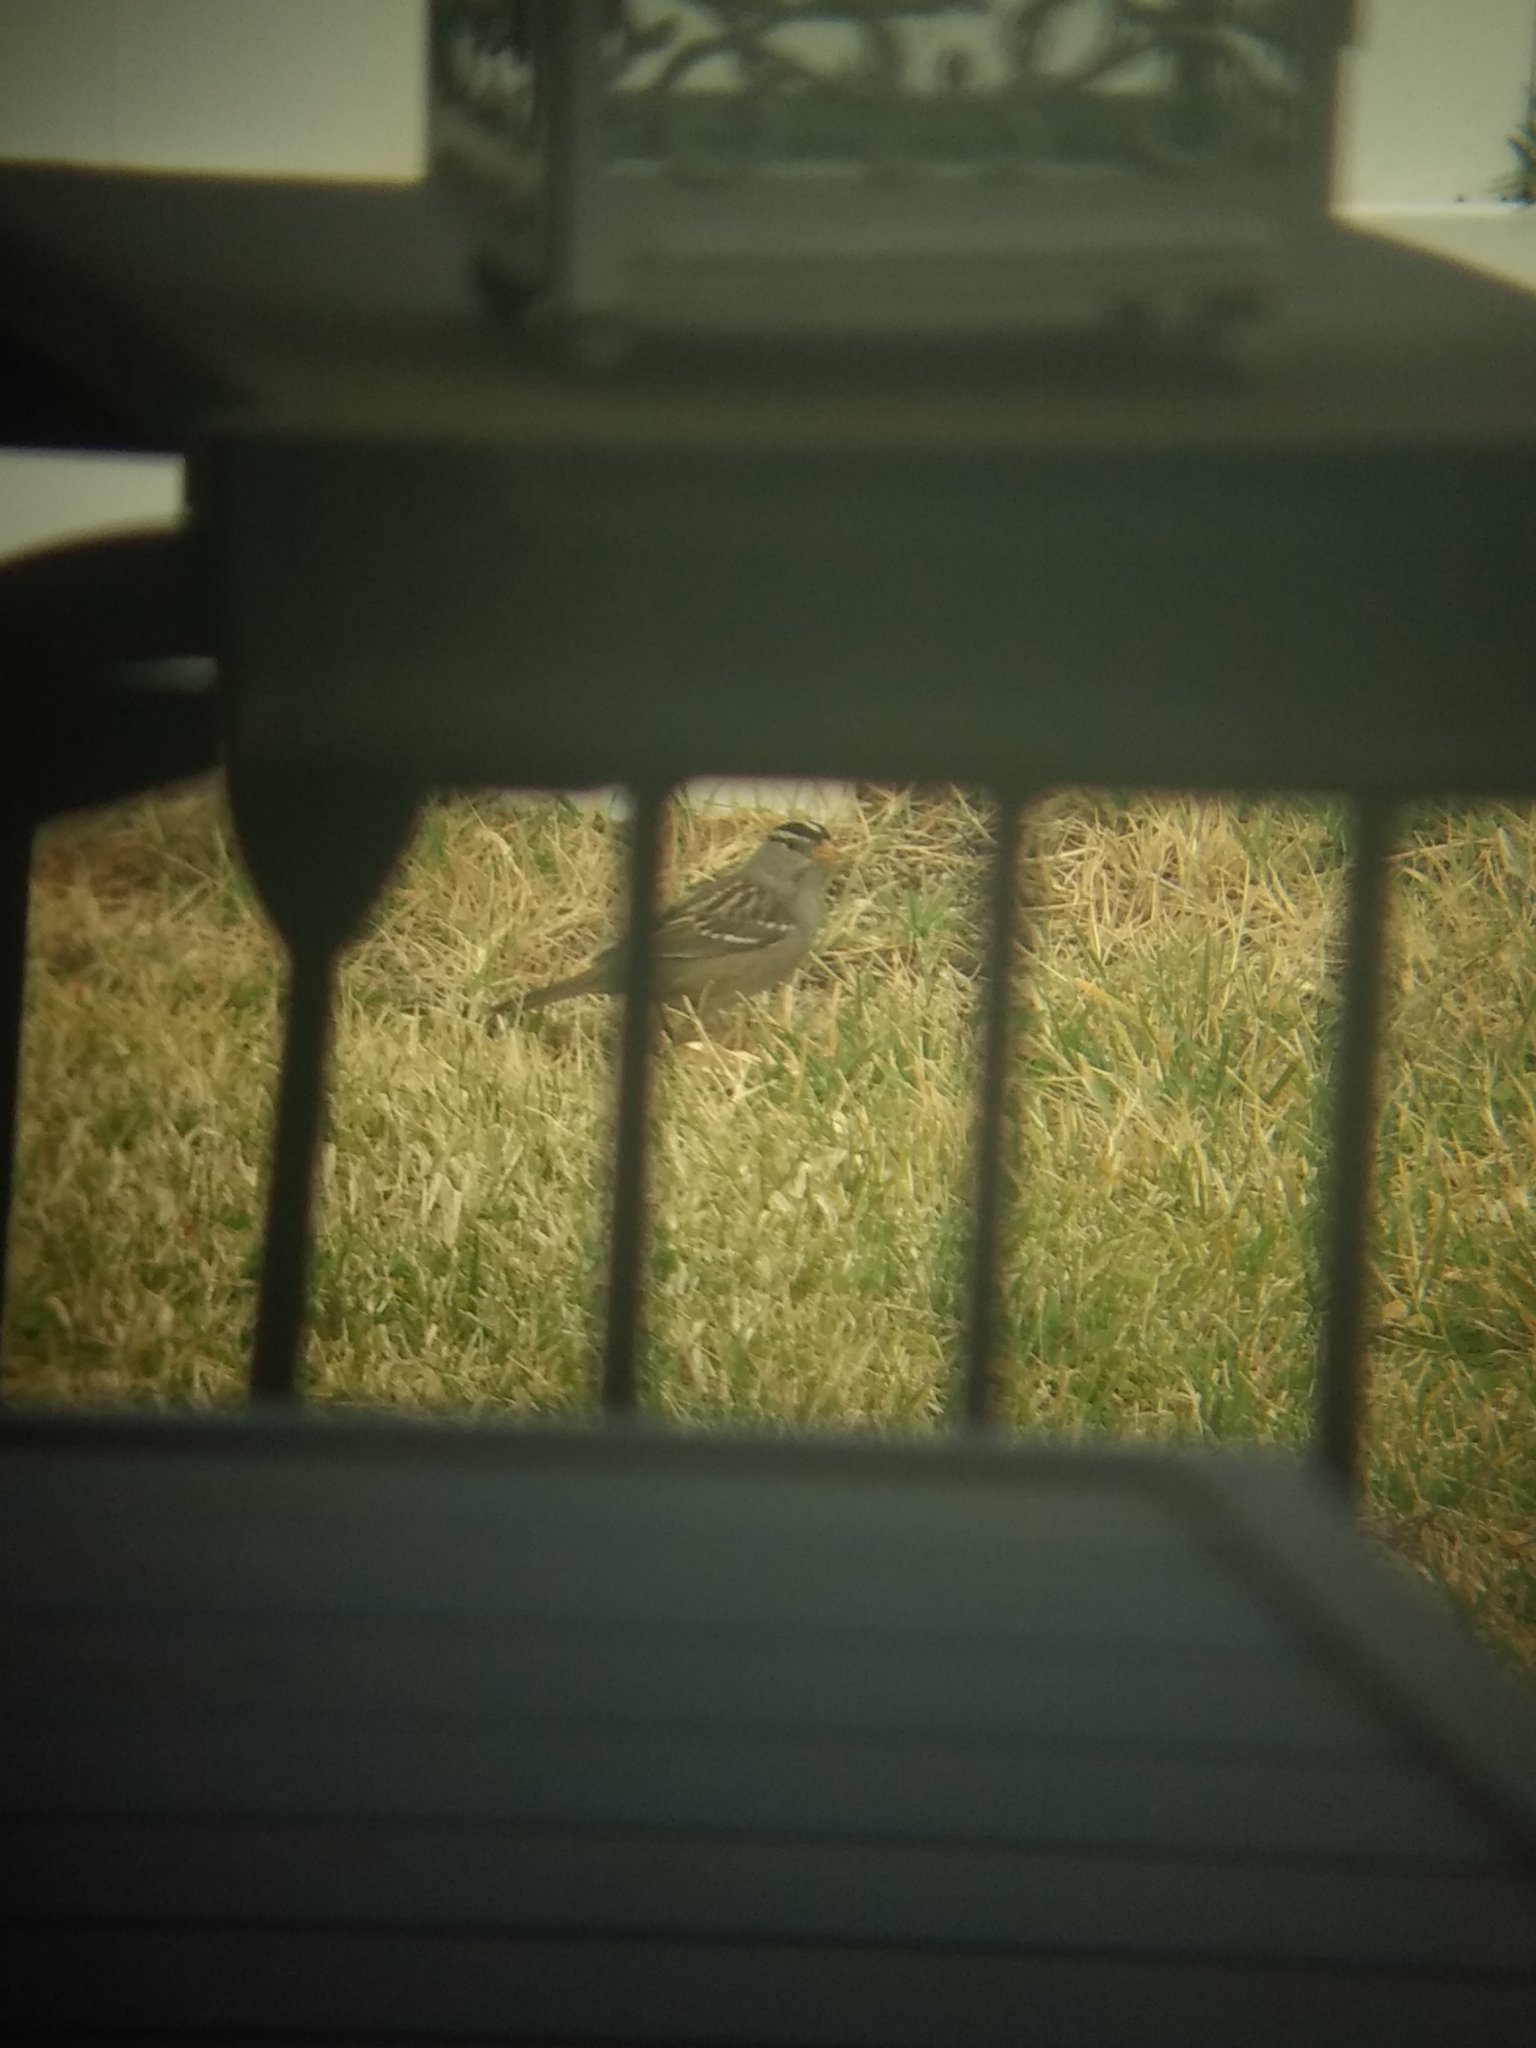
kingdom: Animalia
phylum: Chordata
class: Aves
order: Passeriformes
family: Passerellidae
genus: Zonotrichia
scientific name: Zonotrichia leucophrys
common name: White-crowned sparrow
